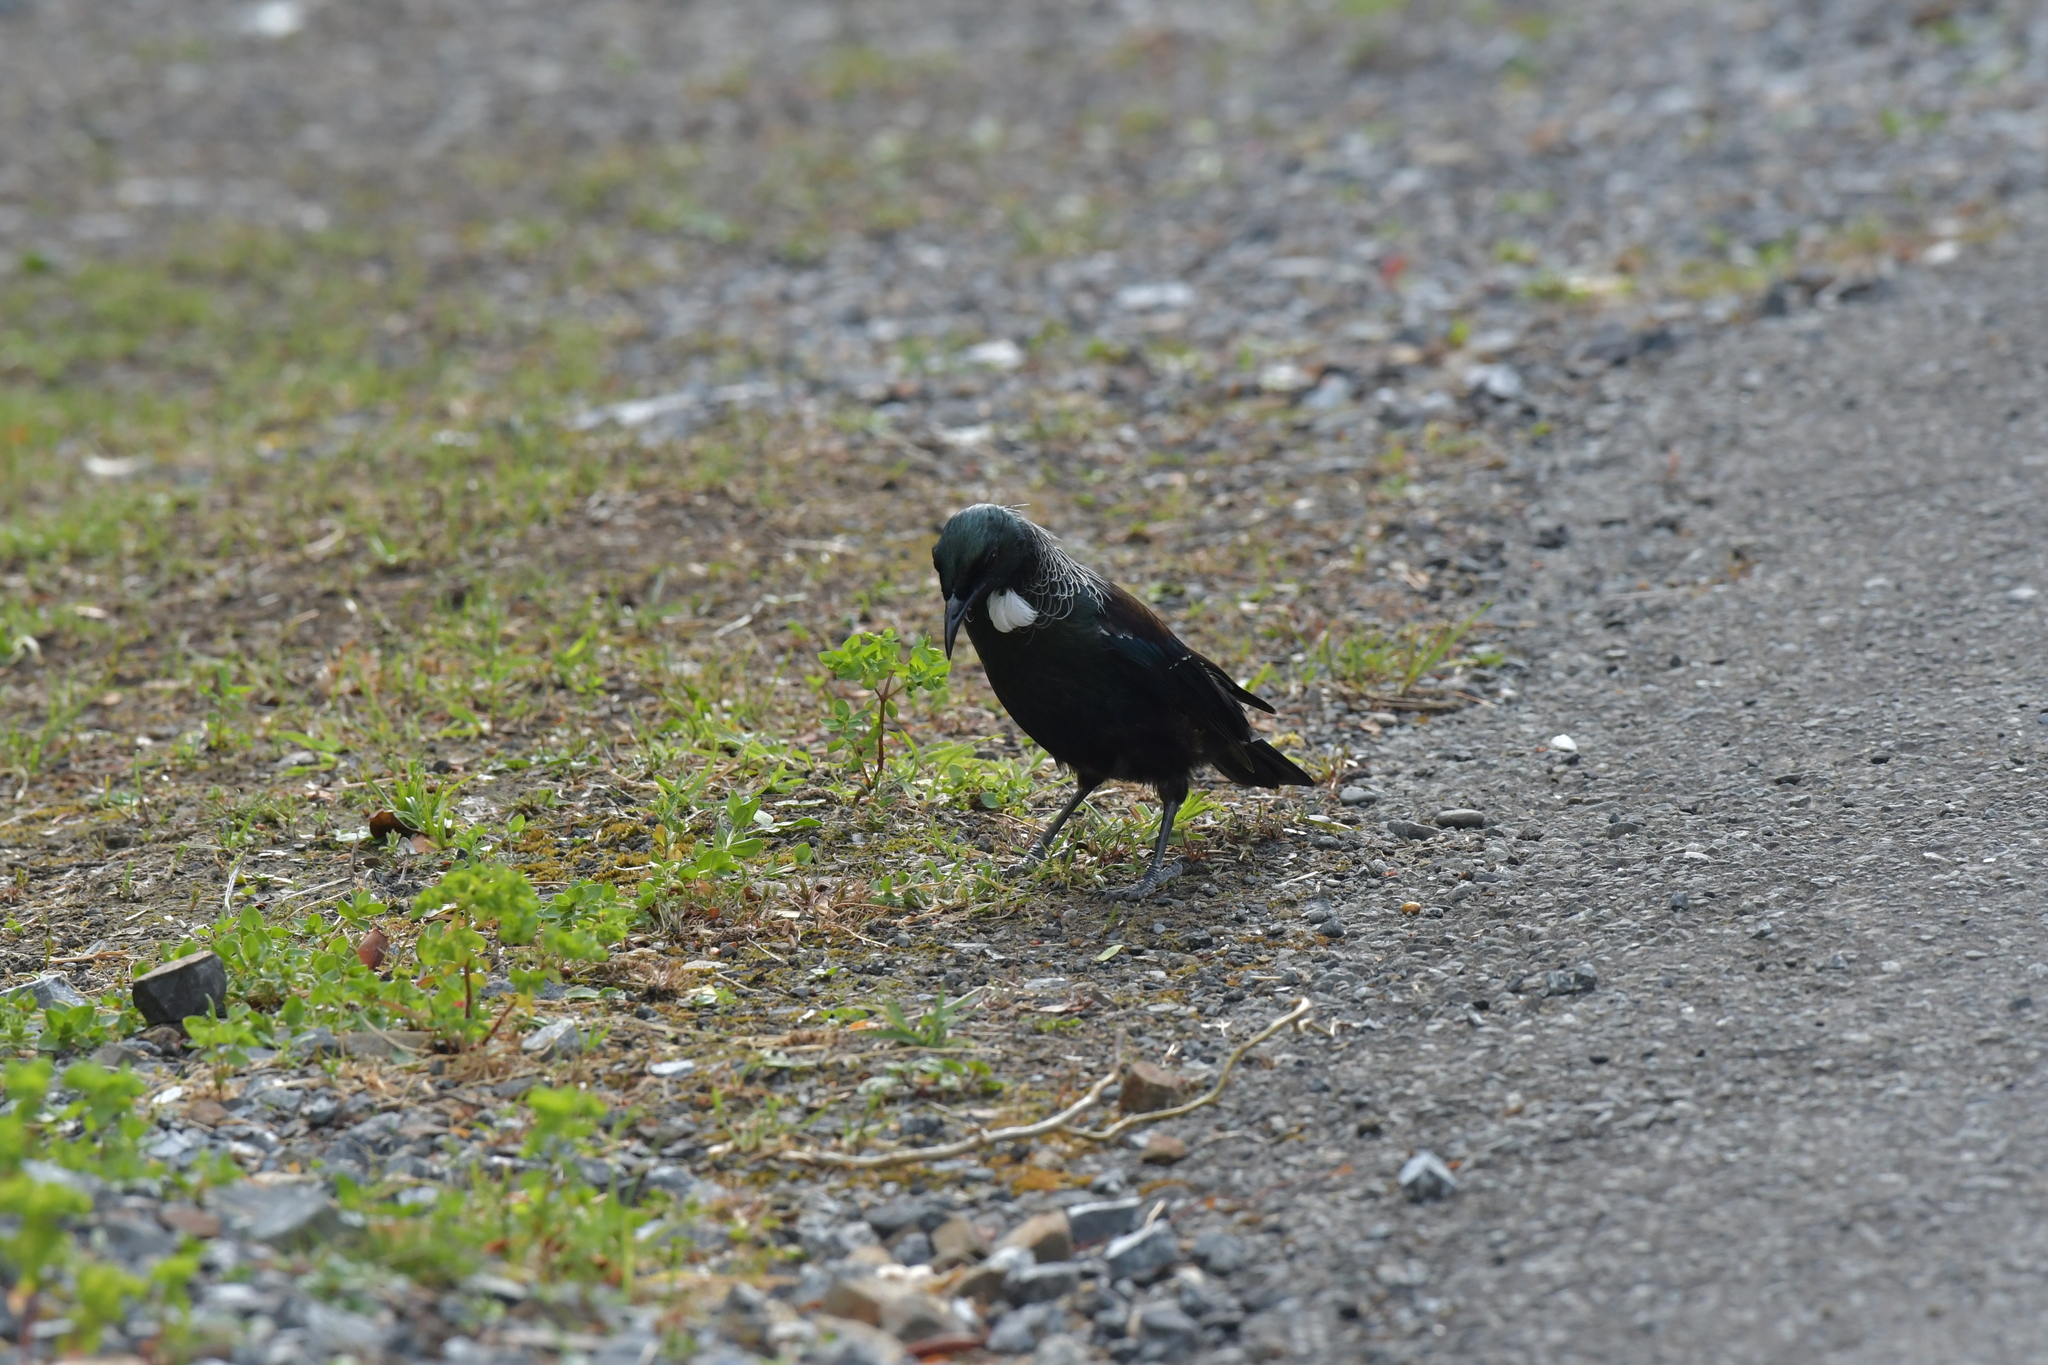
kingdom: Animalia
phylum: Chordata
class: Aves
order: Passeriformes
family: Meliphagidae
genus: Prosthemadera
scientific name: Prosthemadera novaeseelandiae
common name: Tui
